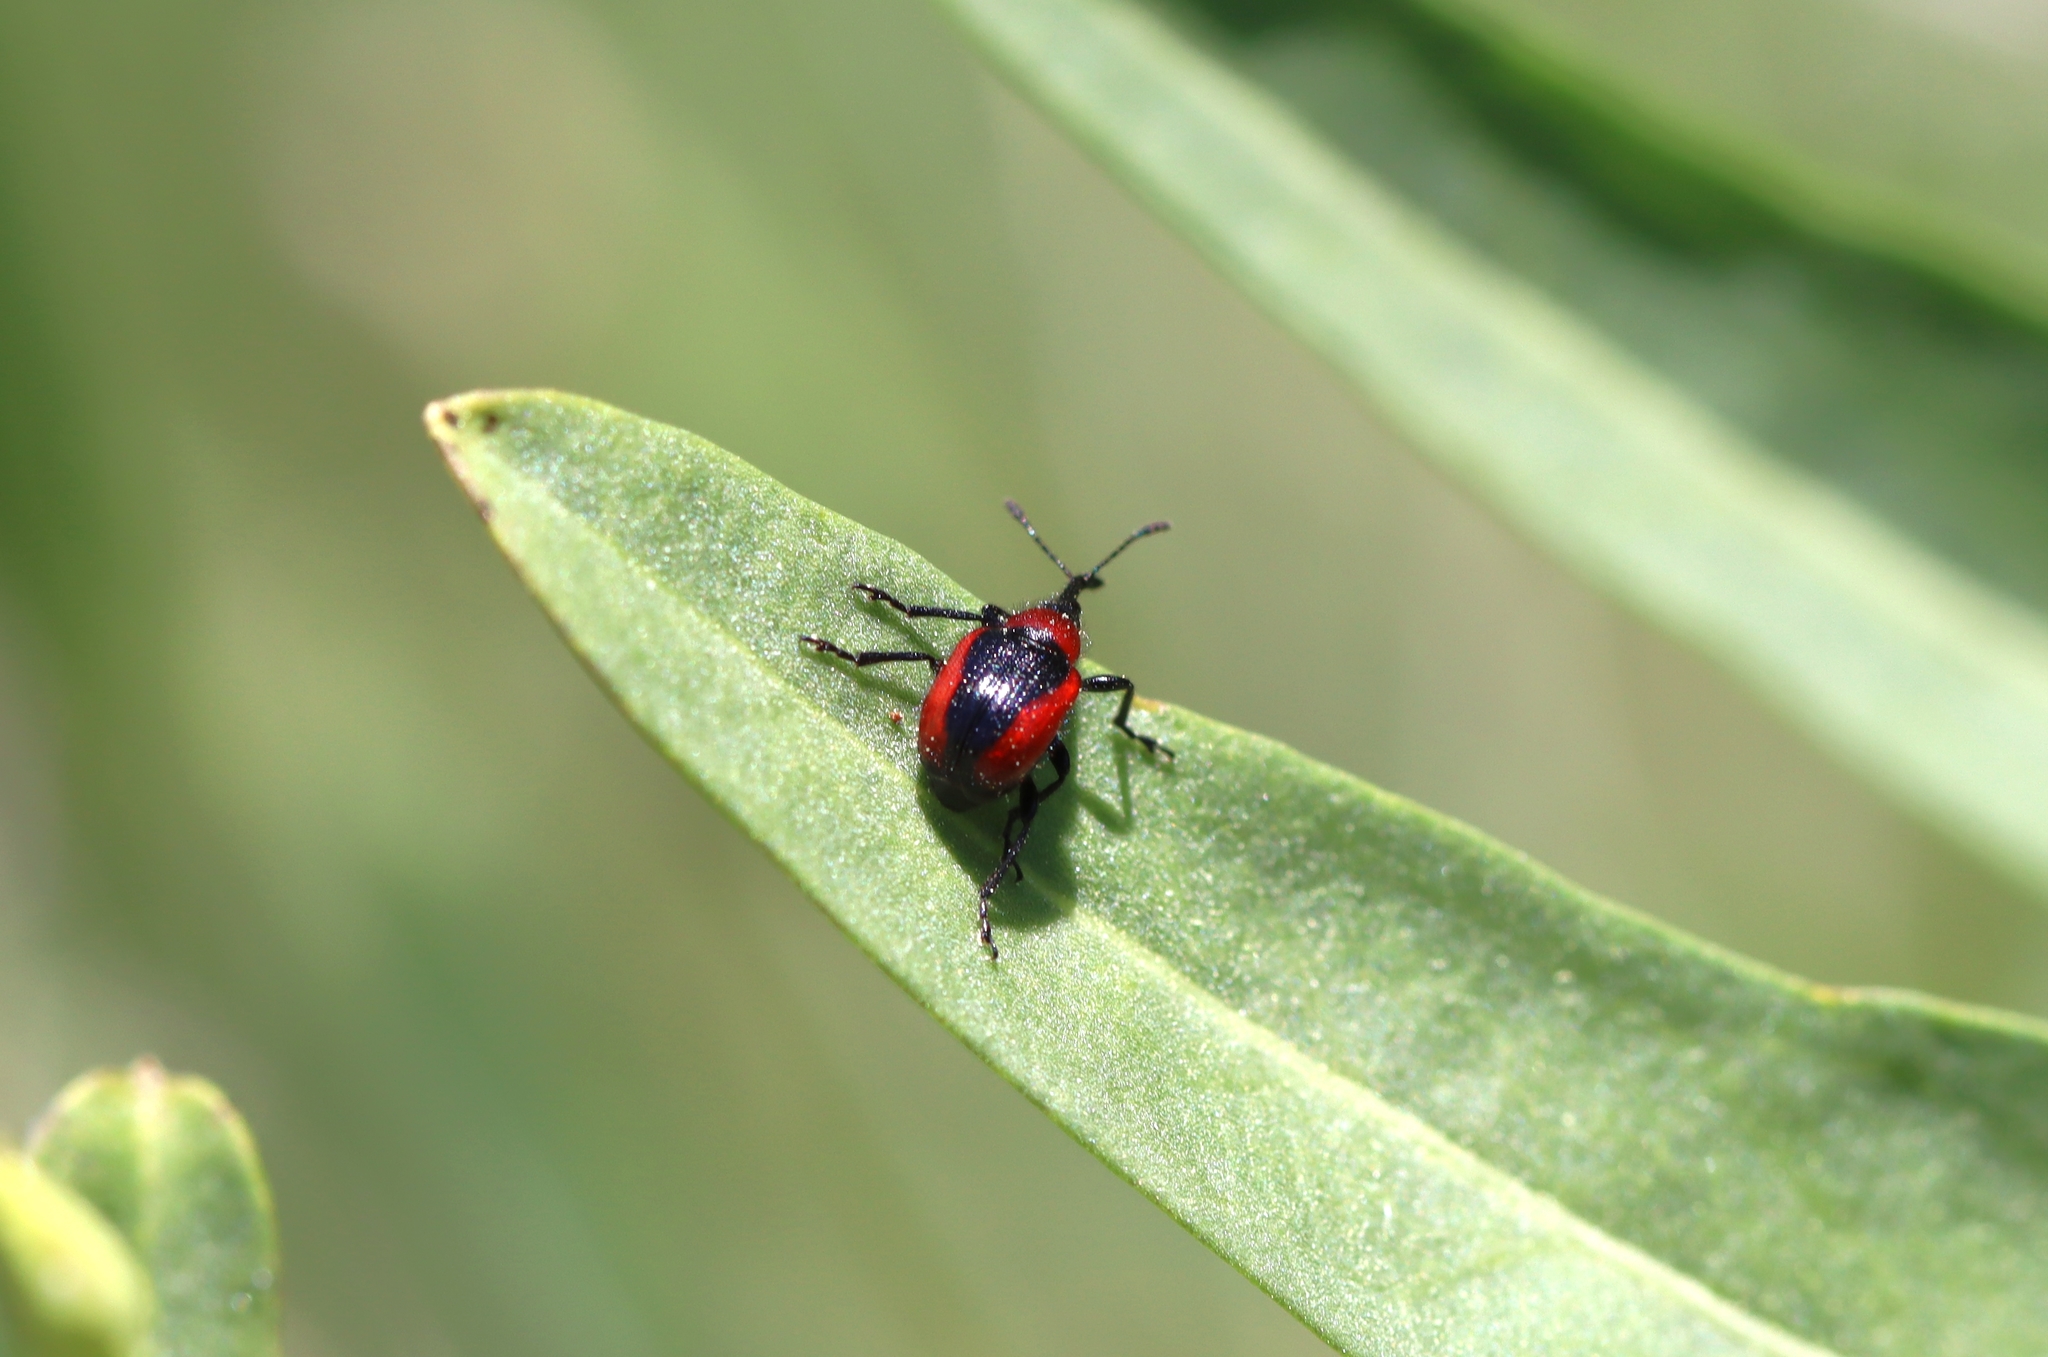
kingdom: Animalia
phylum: Arthropoda
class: Insecta
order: Coleoptera
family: Attelabidae
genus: Mecorhis
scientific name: Mecorhis ungarica
